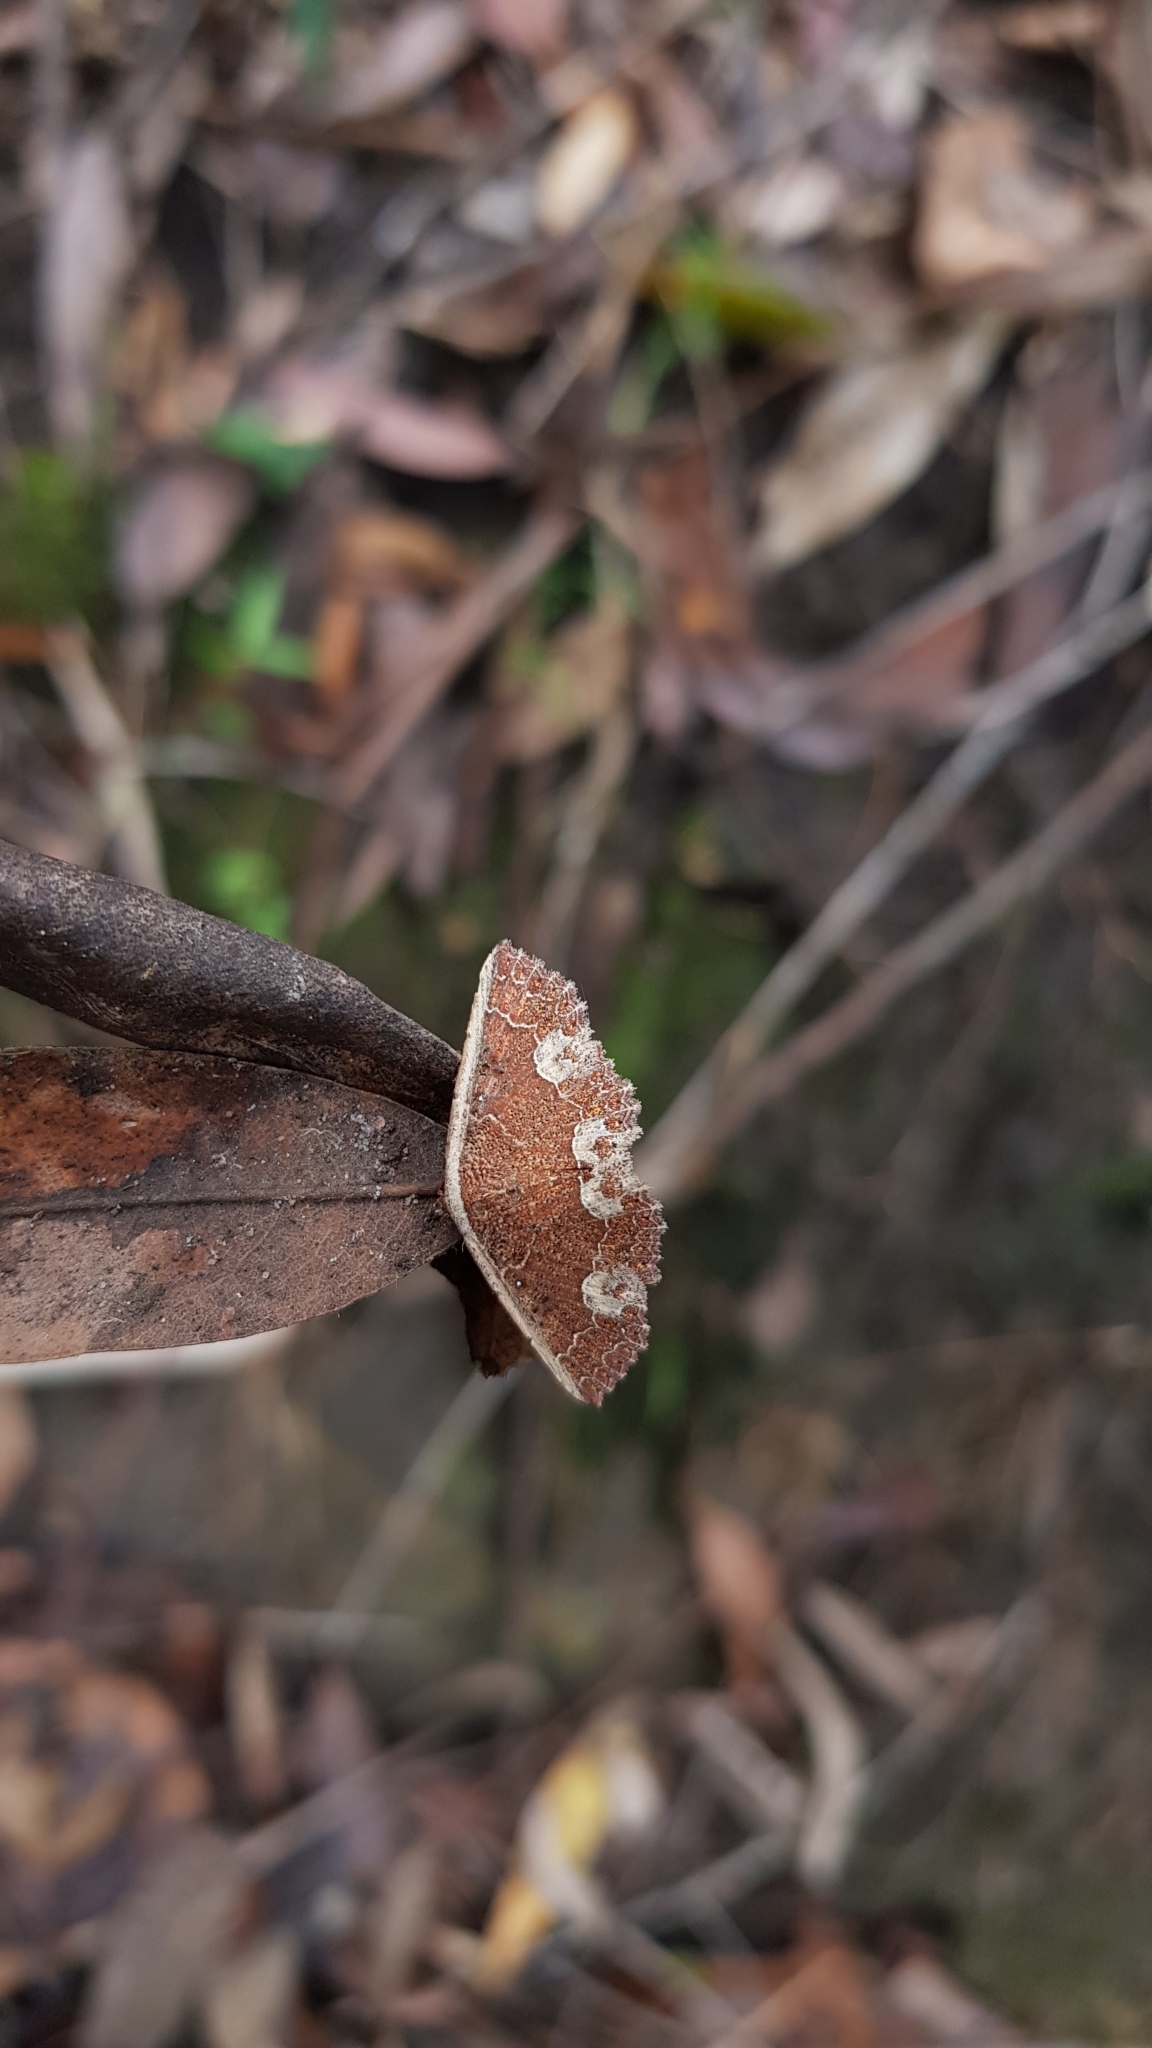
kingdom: Animalia
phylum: Arthropoda
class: Insecta
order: Lepidoptera
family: Noctuidae
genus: Metasada
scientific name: Metasada polycesta
